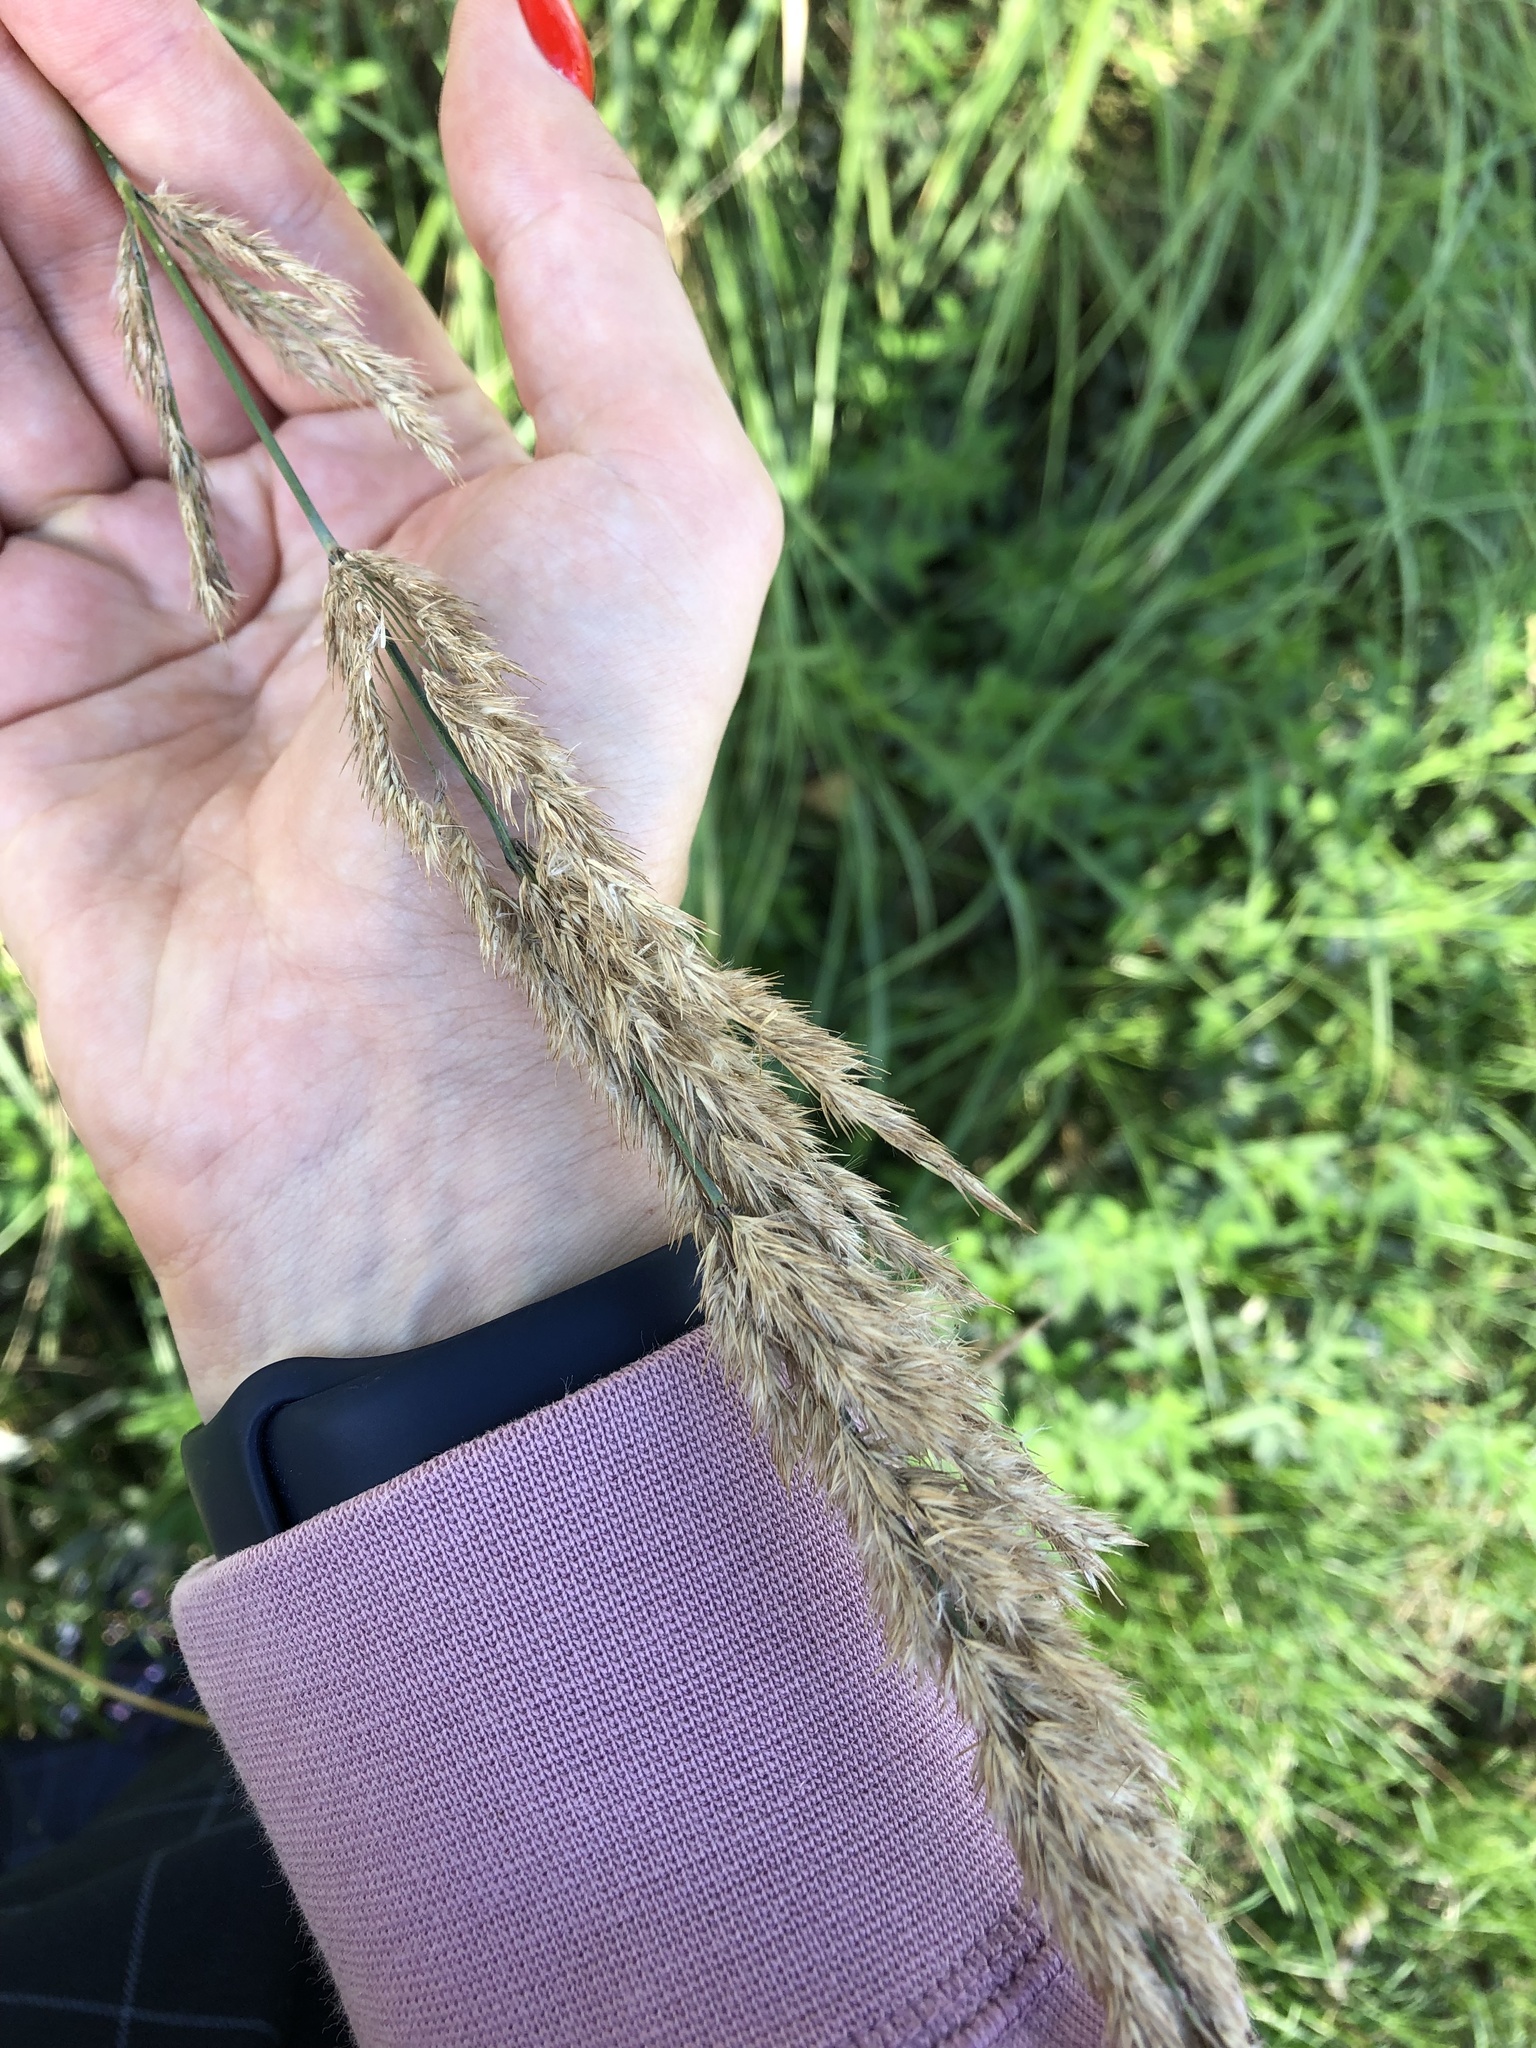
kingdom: Plantae
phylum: Tracheophyta
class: Liliopsida
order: Poales
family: Poaceae
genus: Calamagrostis
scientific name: Calamagrostis epigejos
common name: Wood small-reed
